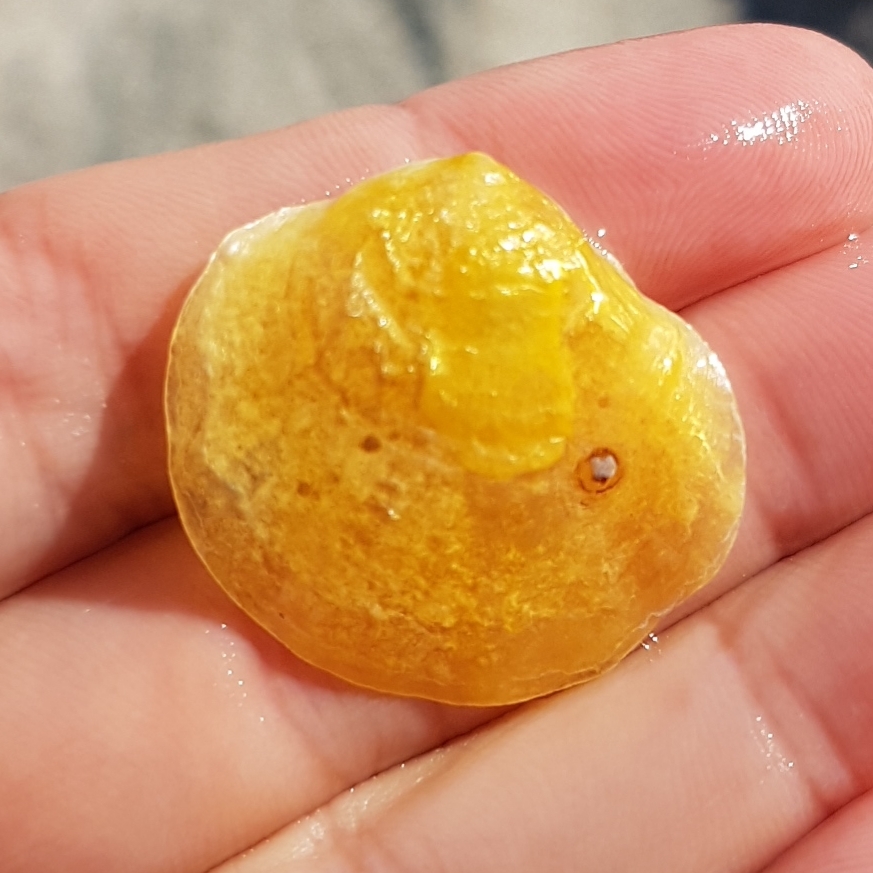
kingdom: Animalia
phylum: Mollusca
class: Bivalvia
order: Pectinida
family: Anomiidae
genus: Anomia
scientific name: Anomia ephippium
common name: Saddle oyster
